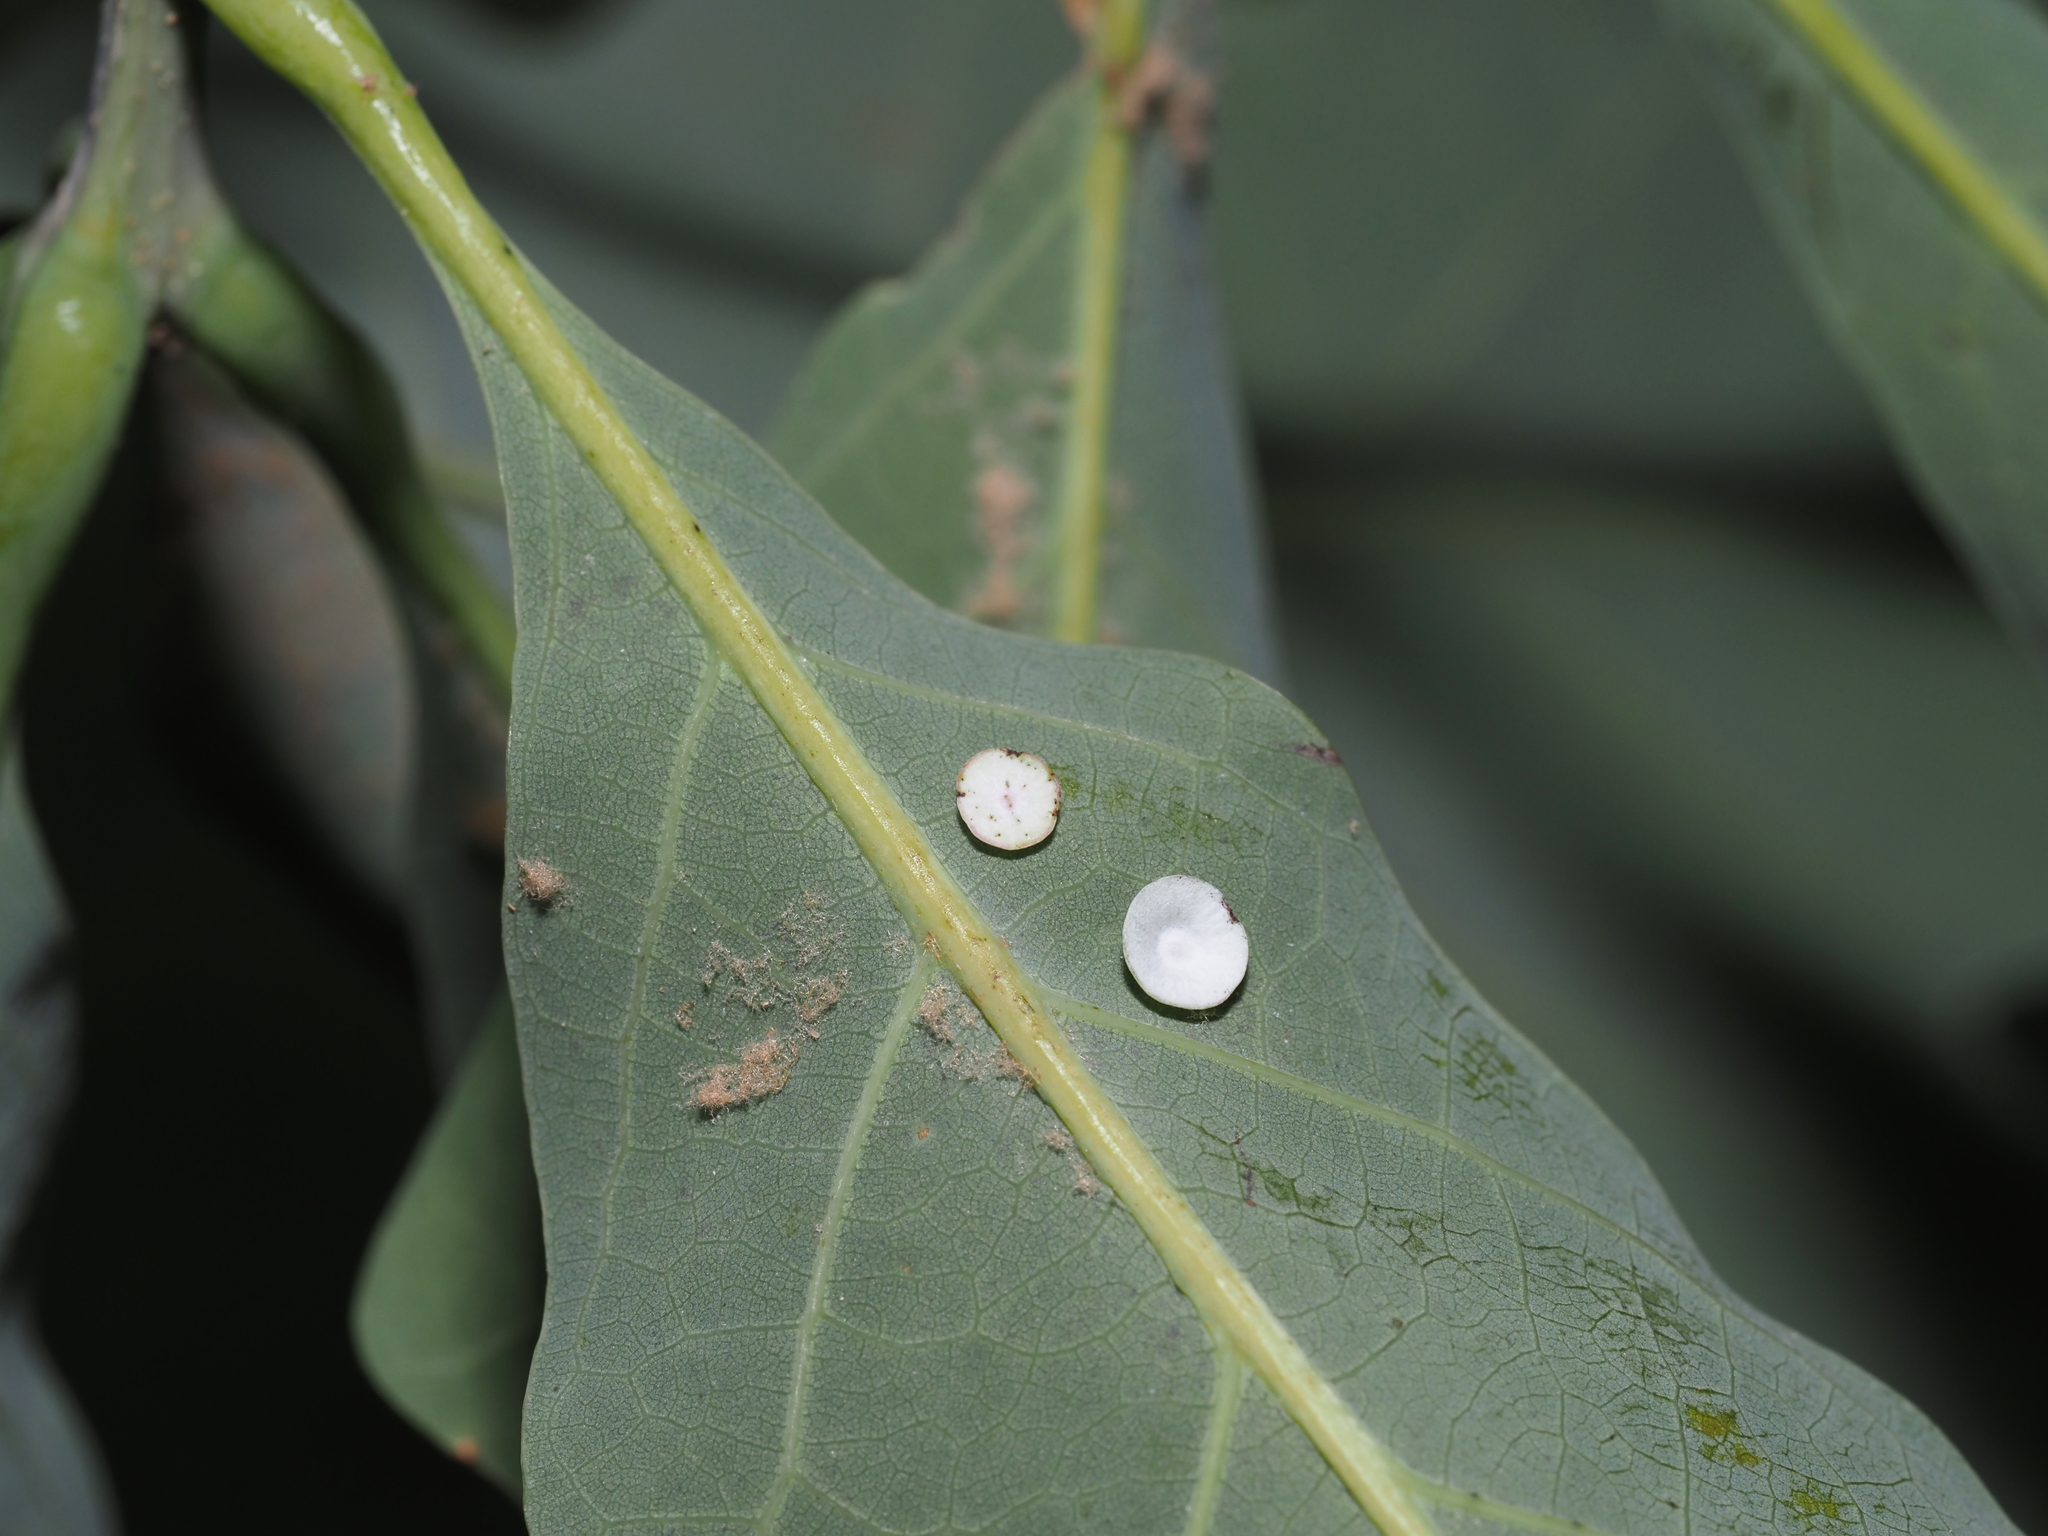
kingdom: Animalia
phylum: Arthropoda
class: Insecta
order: Hymenoptera
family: Cynipidae
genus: Phylloteras
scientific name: Phylloteras poculum
